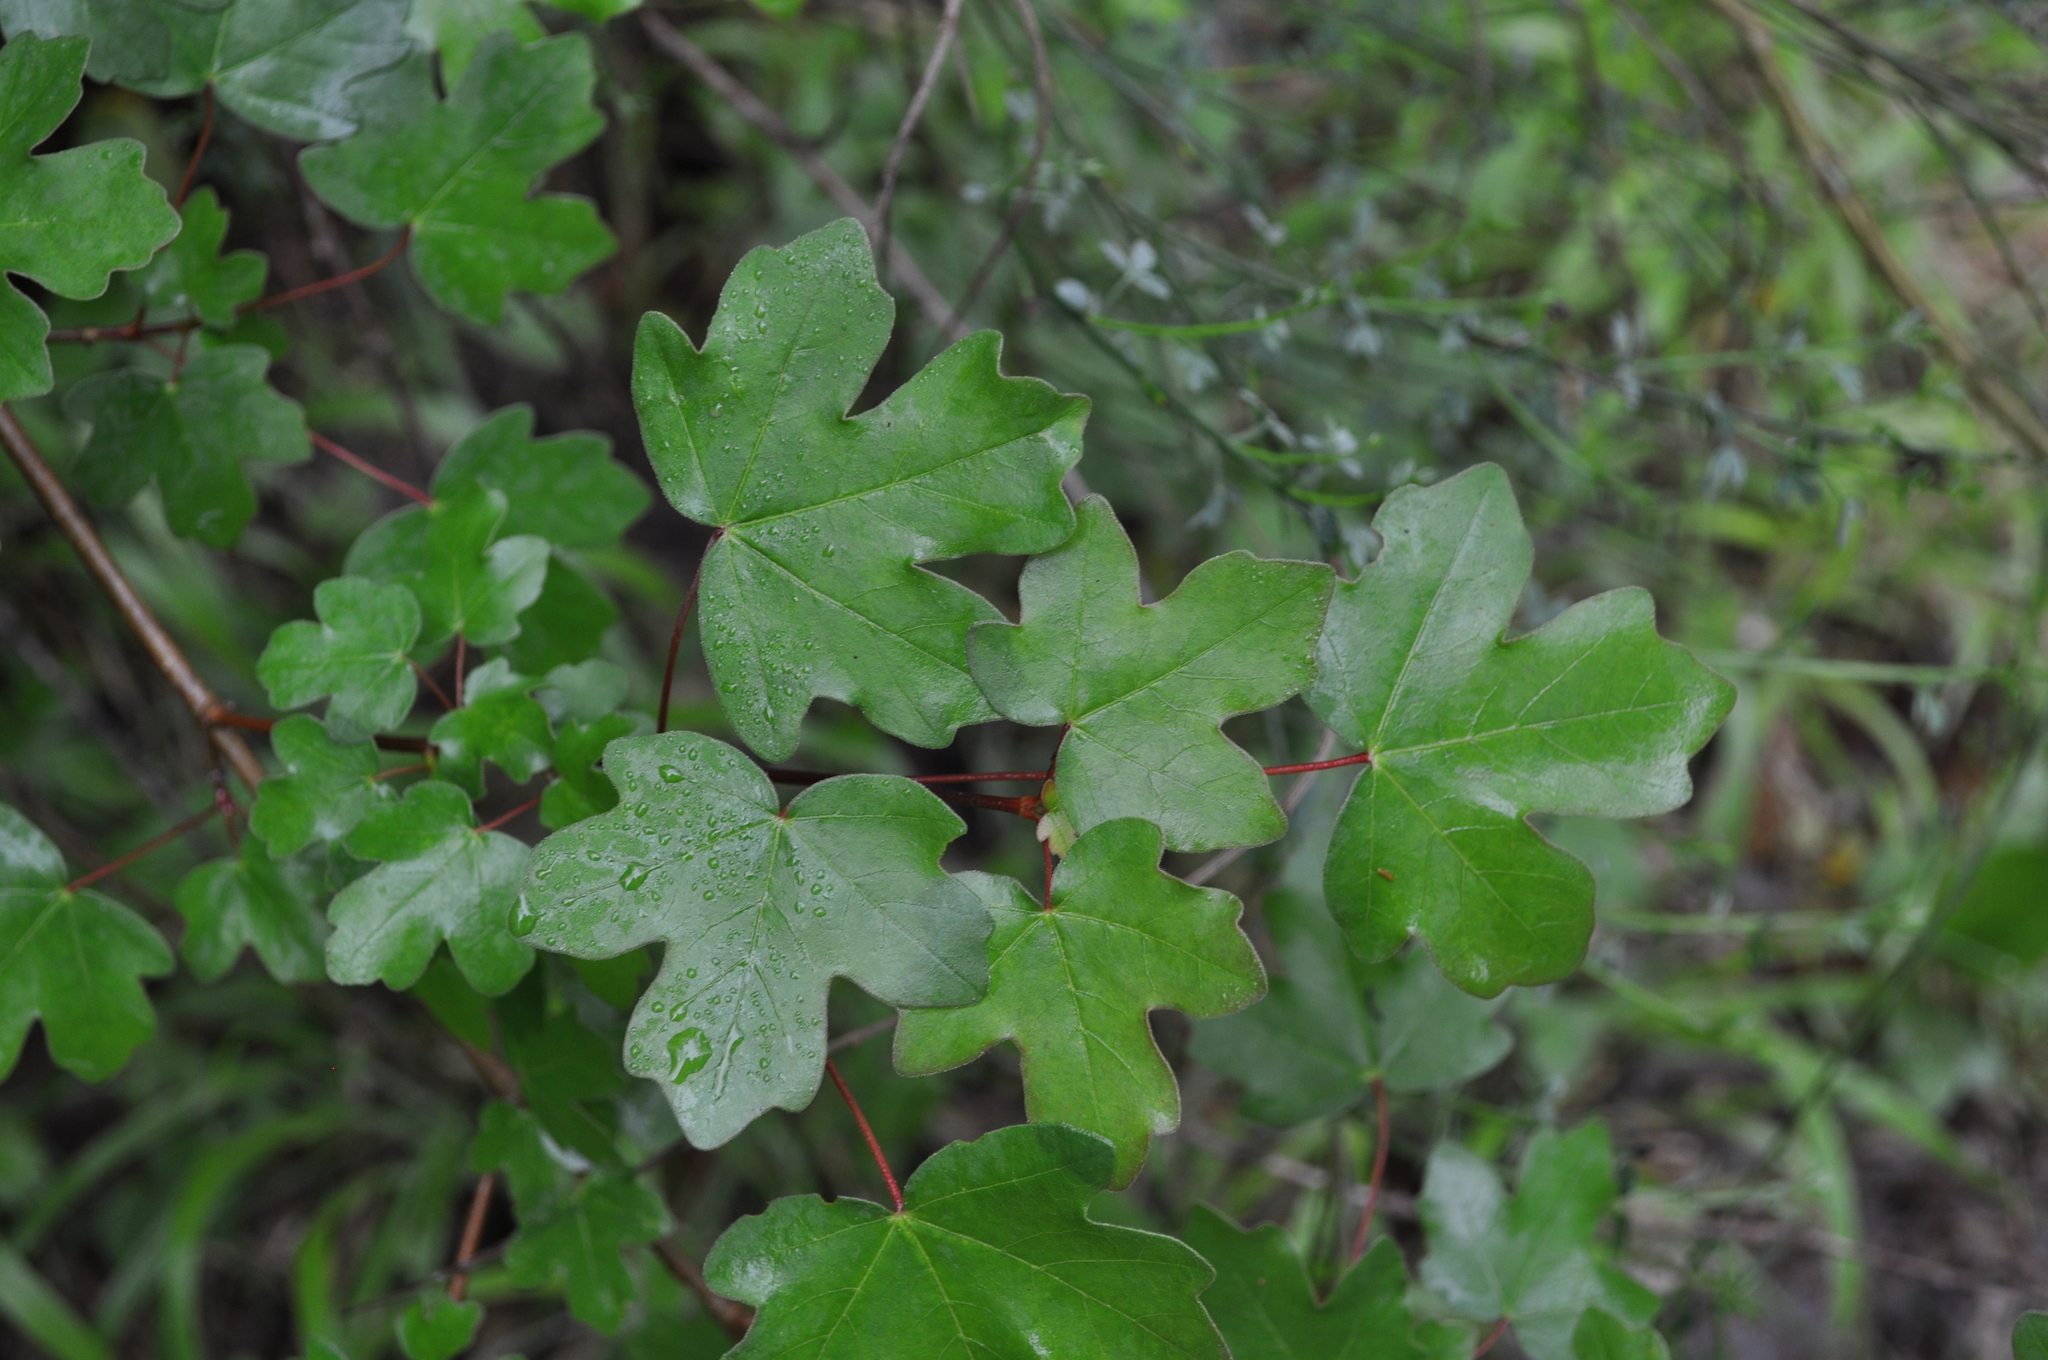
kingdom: Plantae
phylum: Tracheophyta
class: Magnoliopsida
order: Sapindales
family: Sapindaceae
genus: Acer
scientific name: Acer campestre
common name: Field maple
